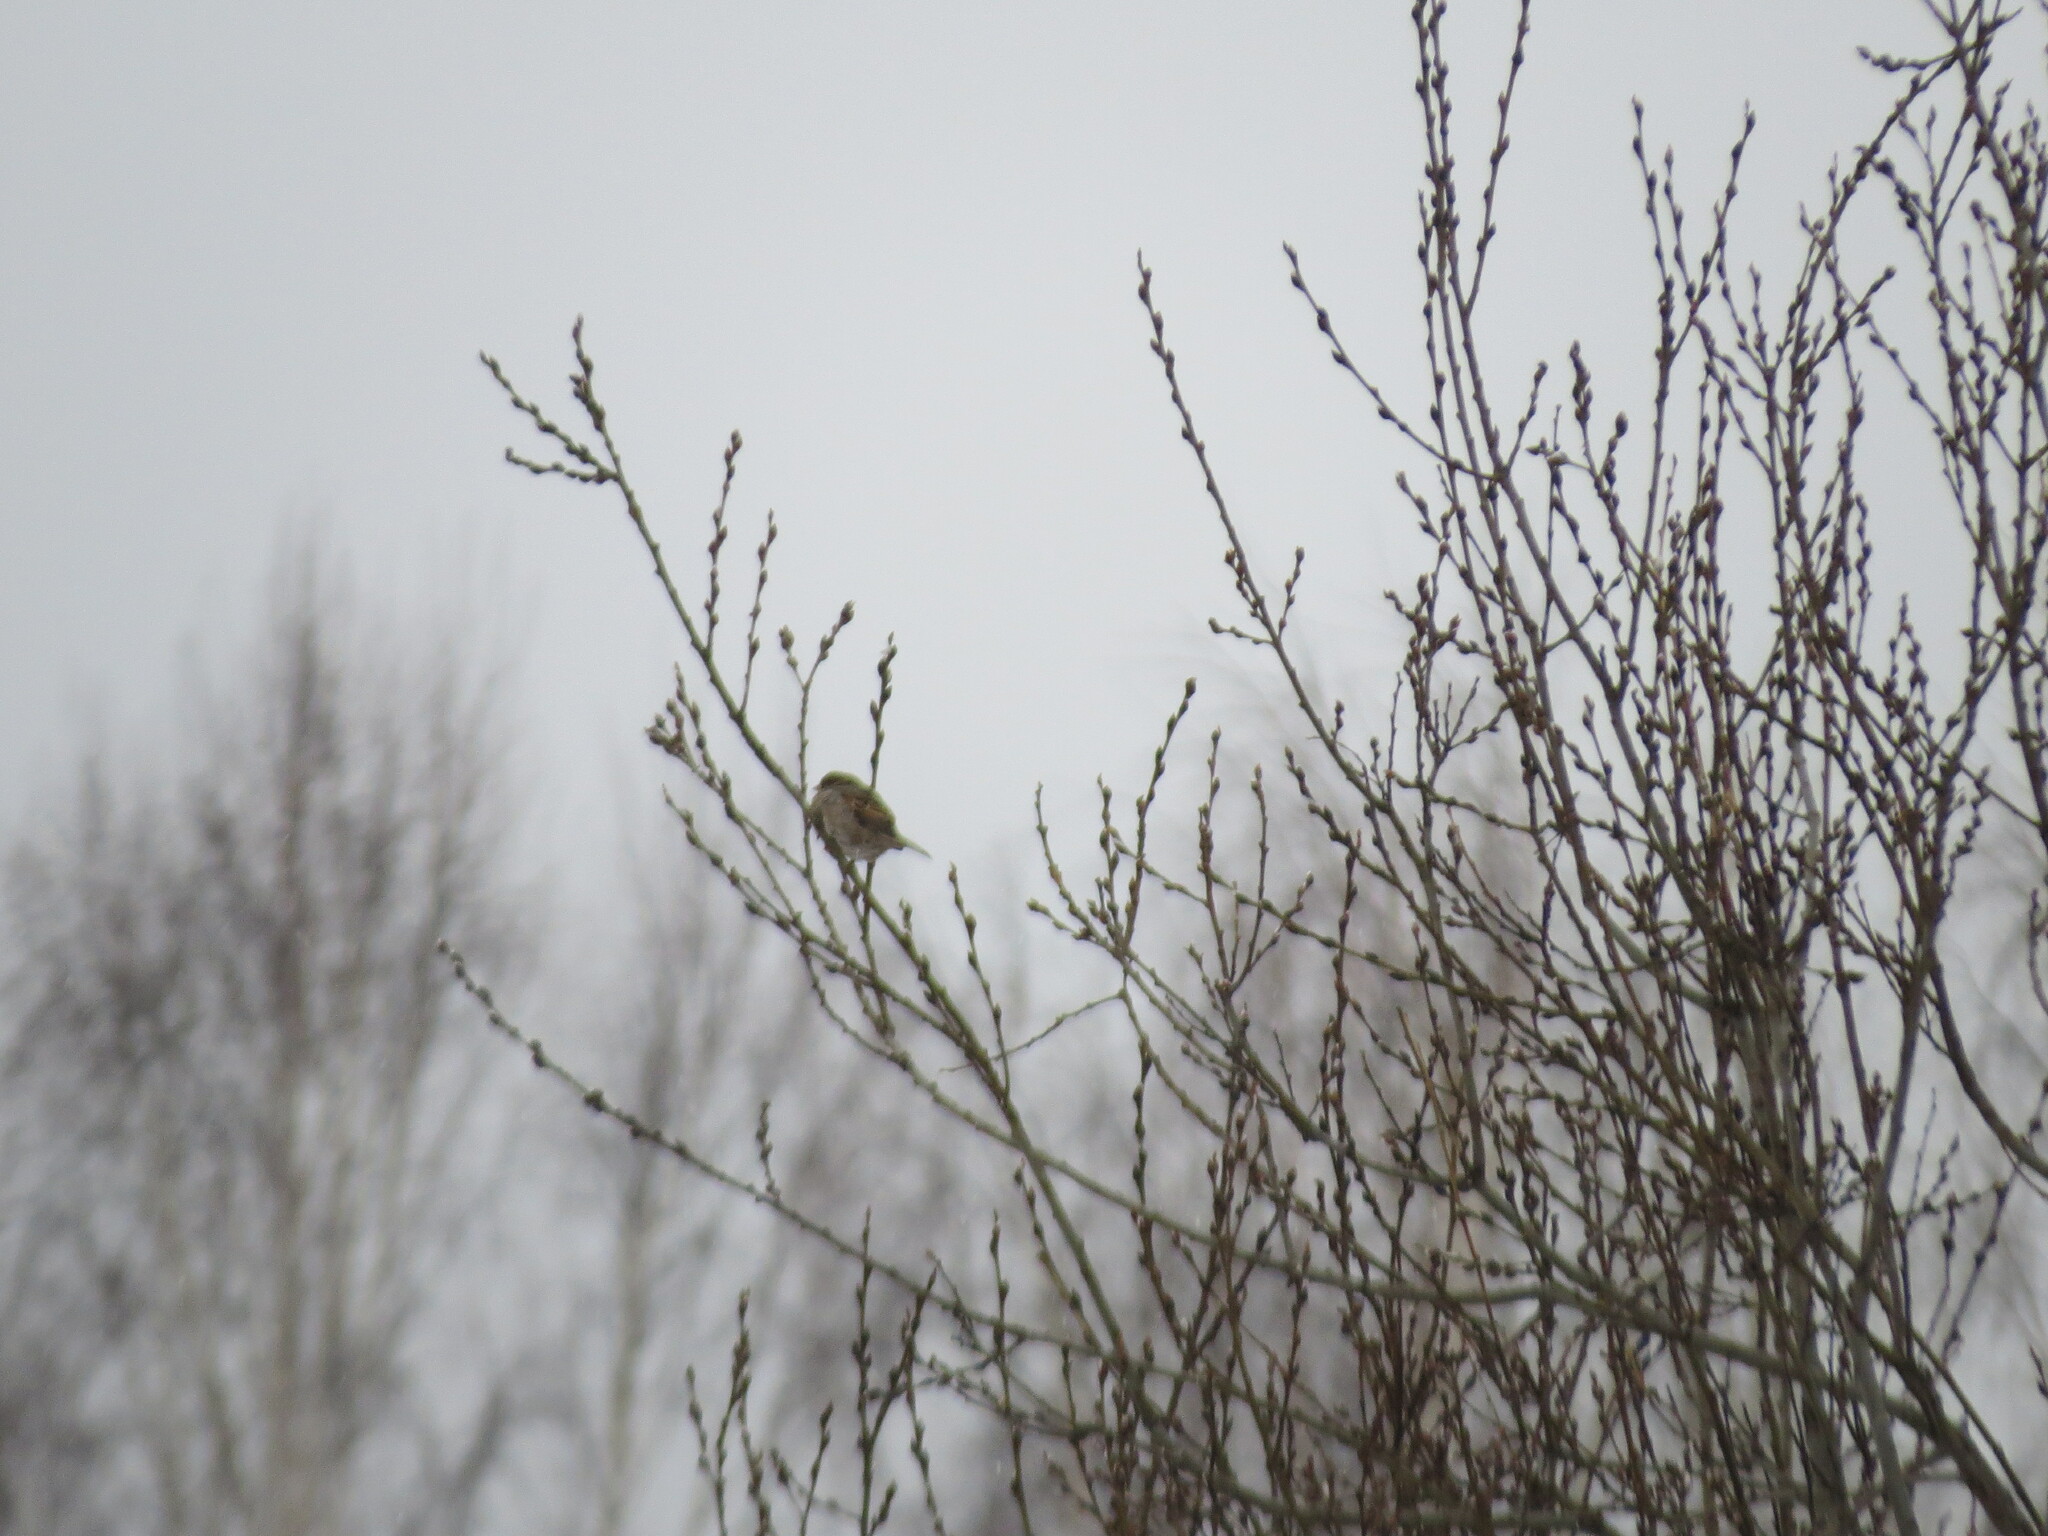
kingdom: Animalia
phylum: Chordata
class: Aves
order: Passeriformes
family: Passeridae
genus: Passer
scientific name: Passer domesticus
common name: House sparrow
